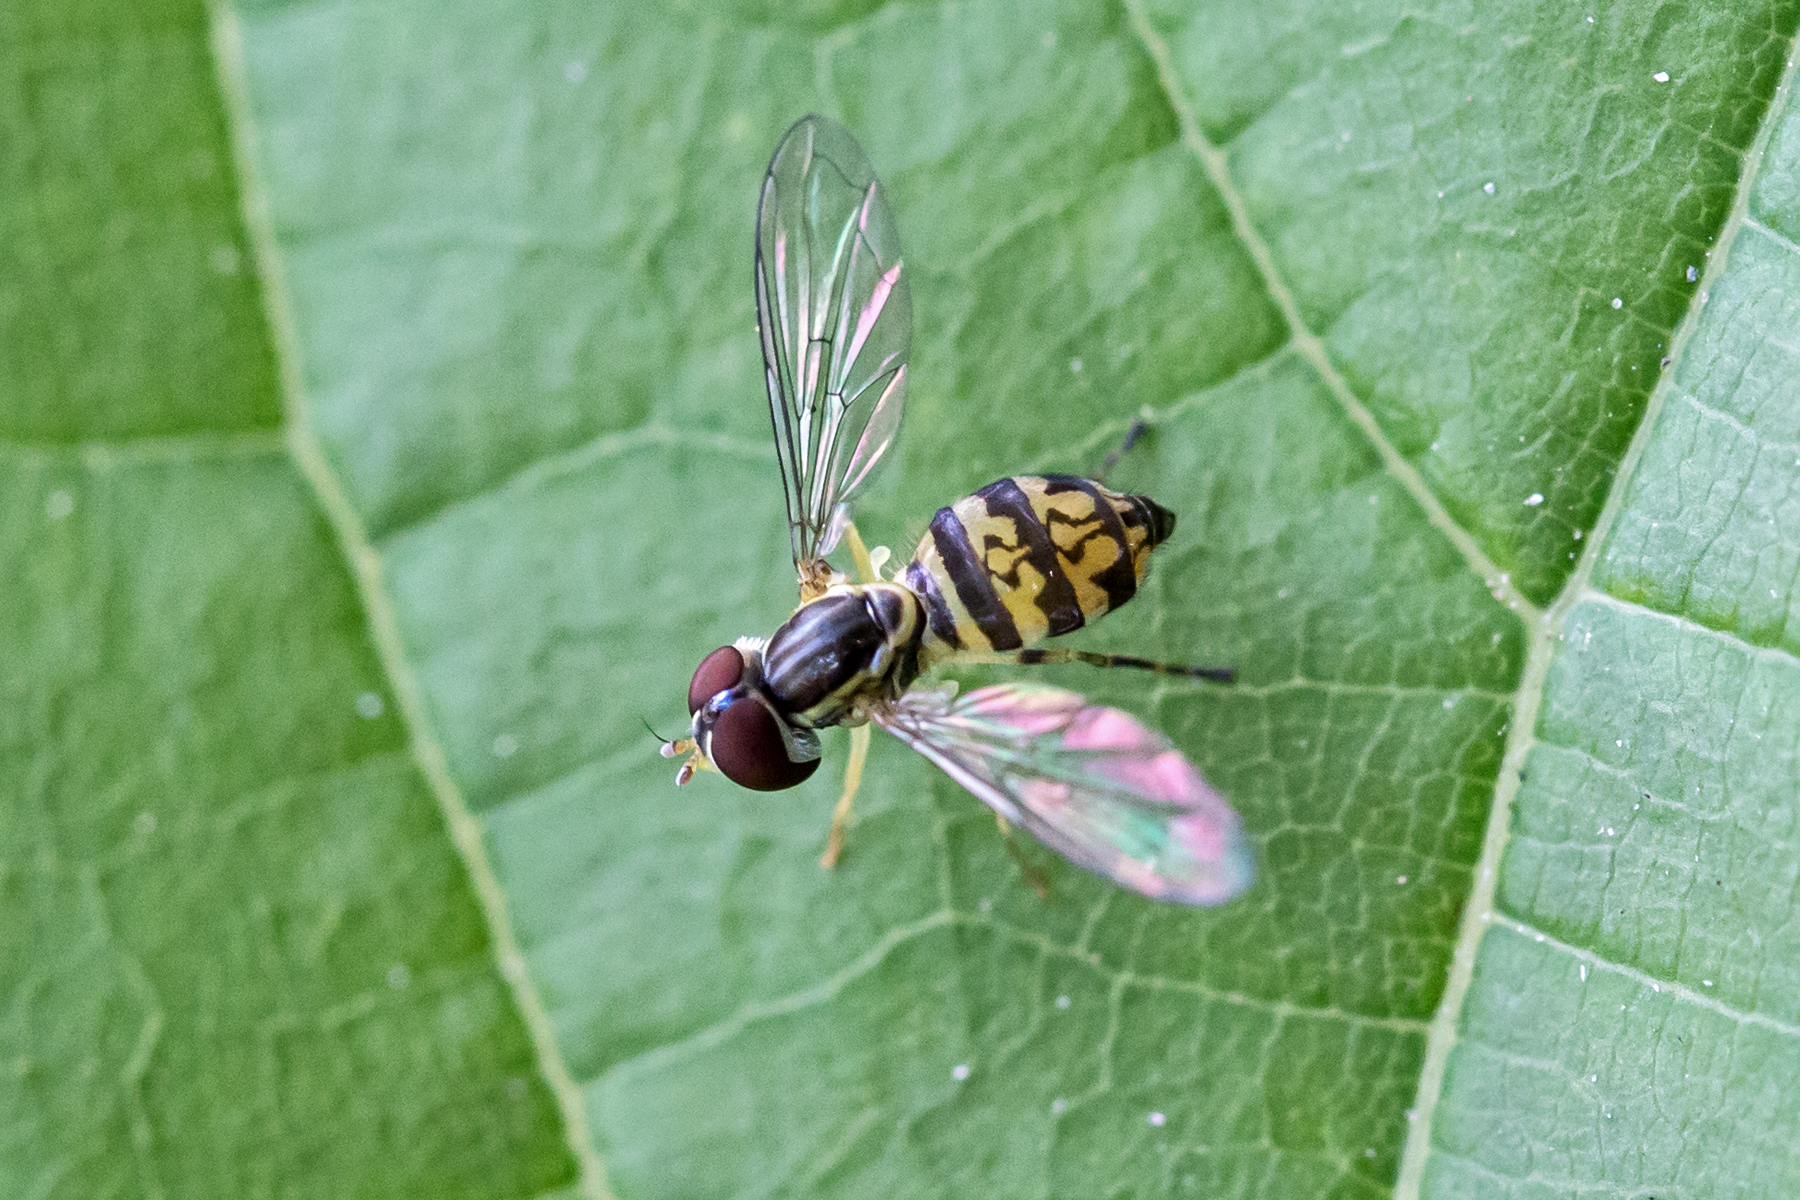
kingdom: Animalia
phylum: Arthropoda
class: Insecta
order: Diptera
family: Syrphidae
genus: Toxomerus
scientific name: Toxomerus geminatus
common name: Eastern calligrapher
